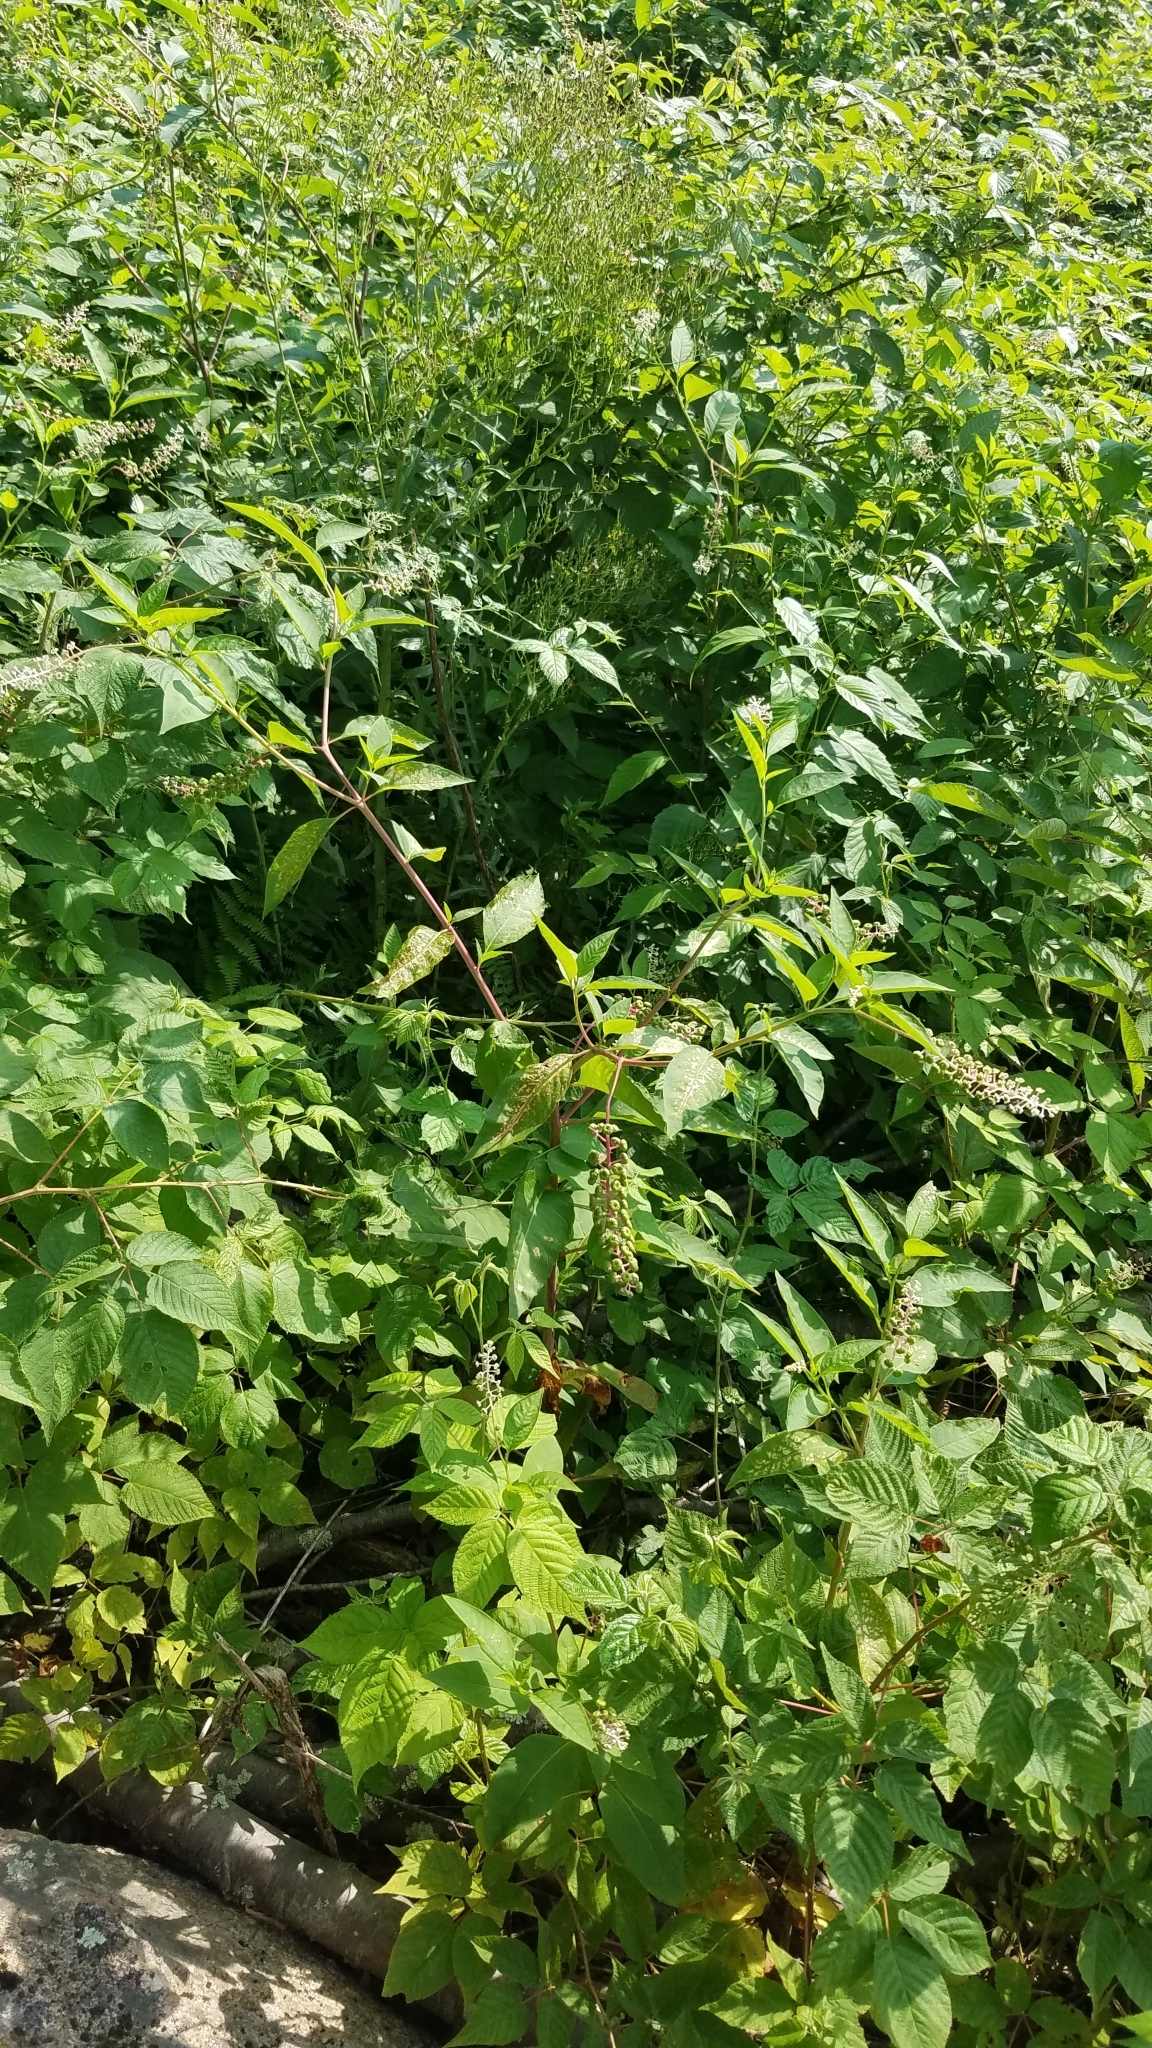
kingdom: Plantae
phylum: Tracheophyta
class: Magnoliopsida
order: Caryophyllales
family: Phytolaccaceae
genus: Phytolacca
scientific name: Phytolacca americana
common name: American pokeweed
